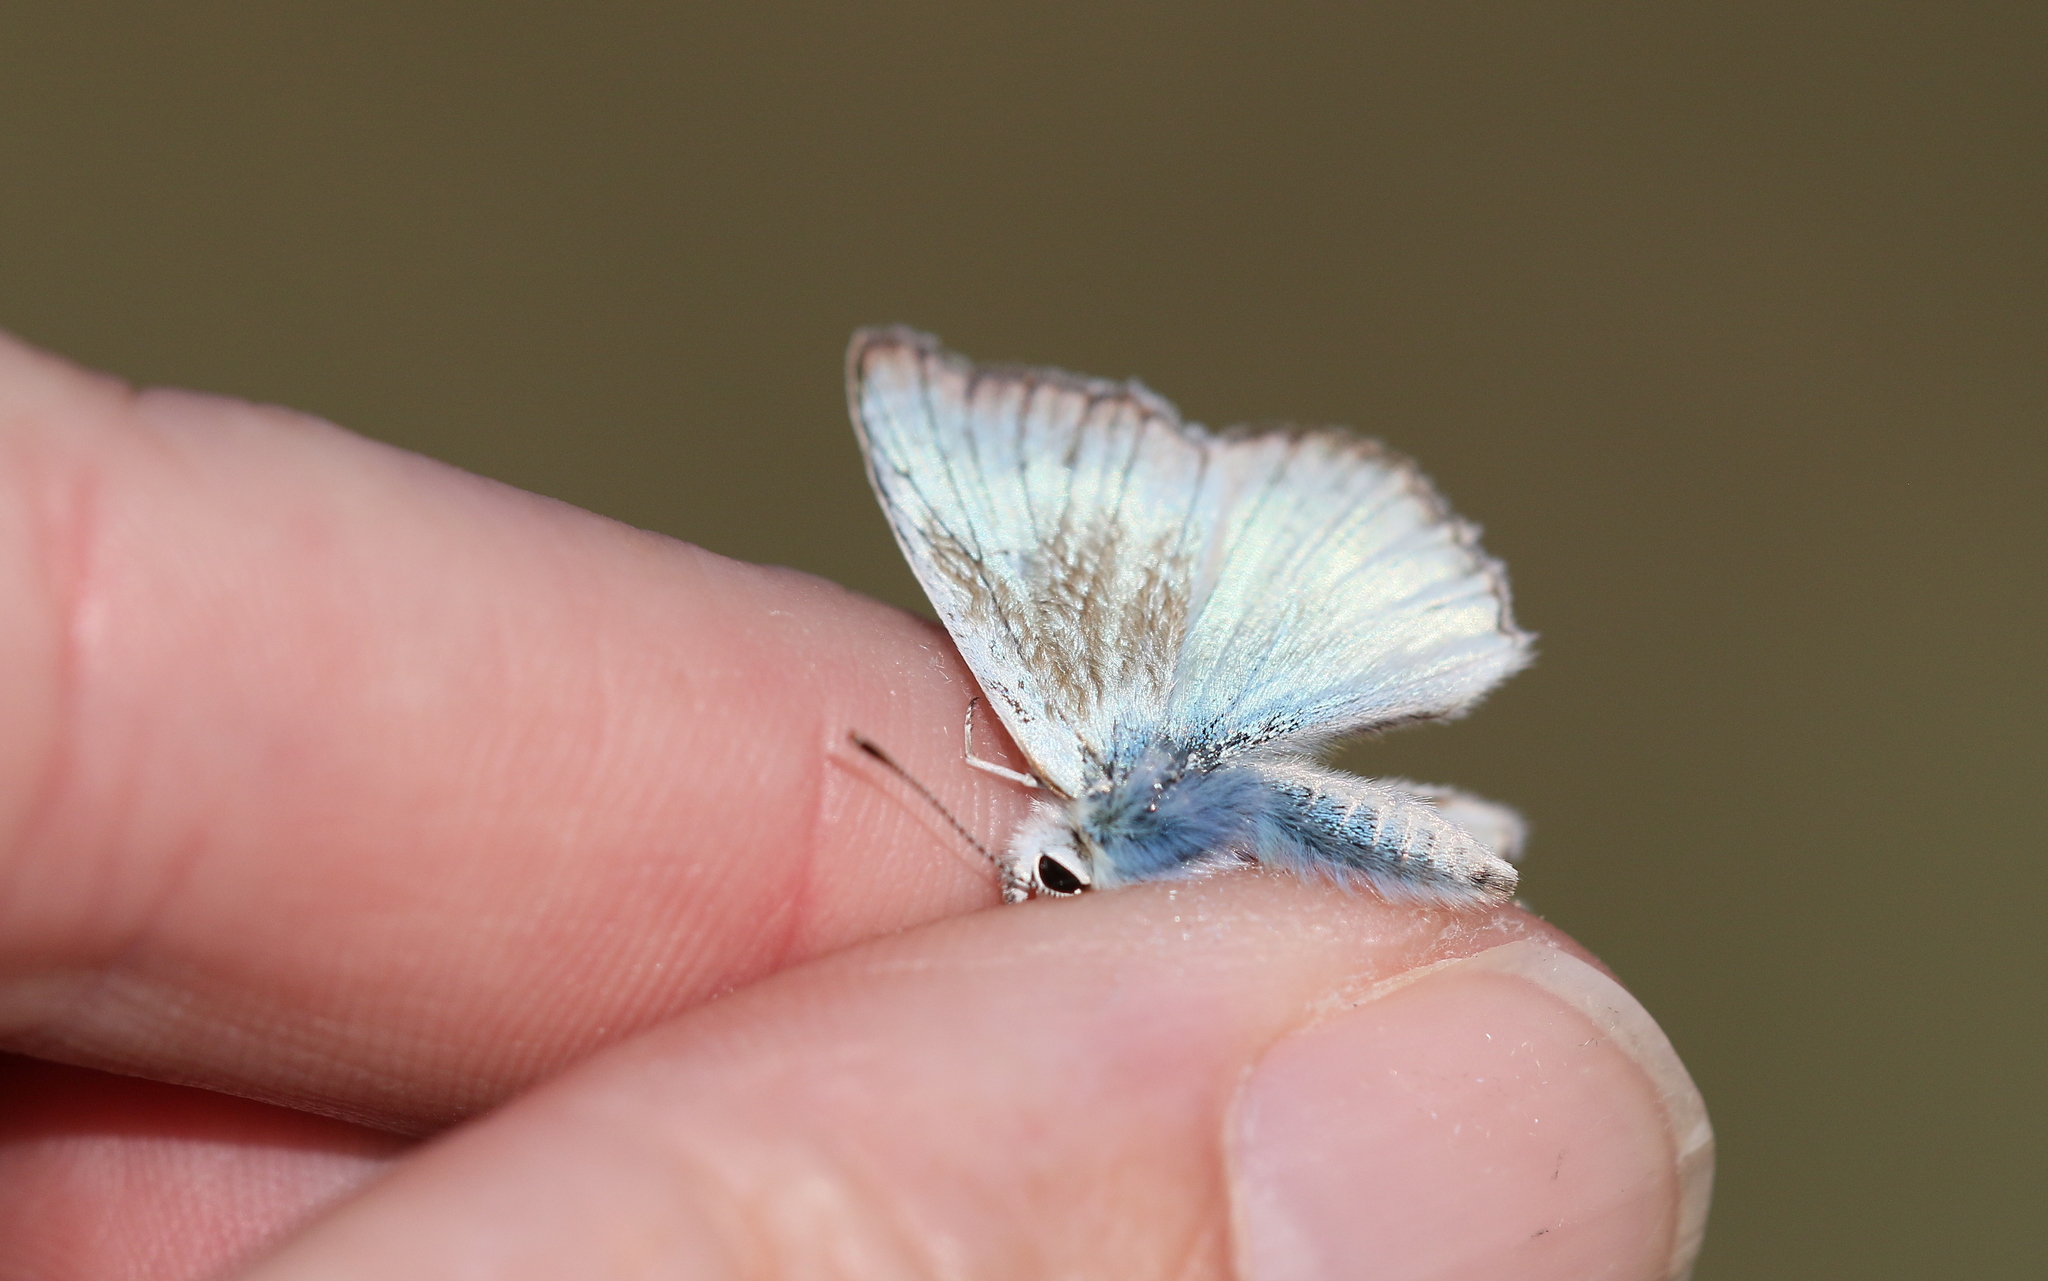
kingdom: Animalia
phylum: Arthropoda
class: Insecta
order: Lepidoptera
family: Lycaenidae
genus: Agrodiaetus
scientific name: Agrodiaetus dolus
